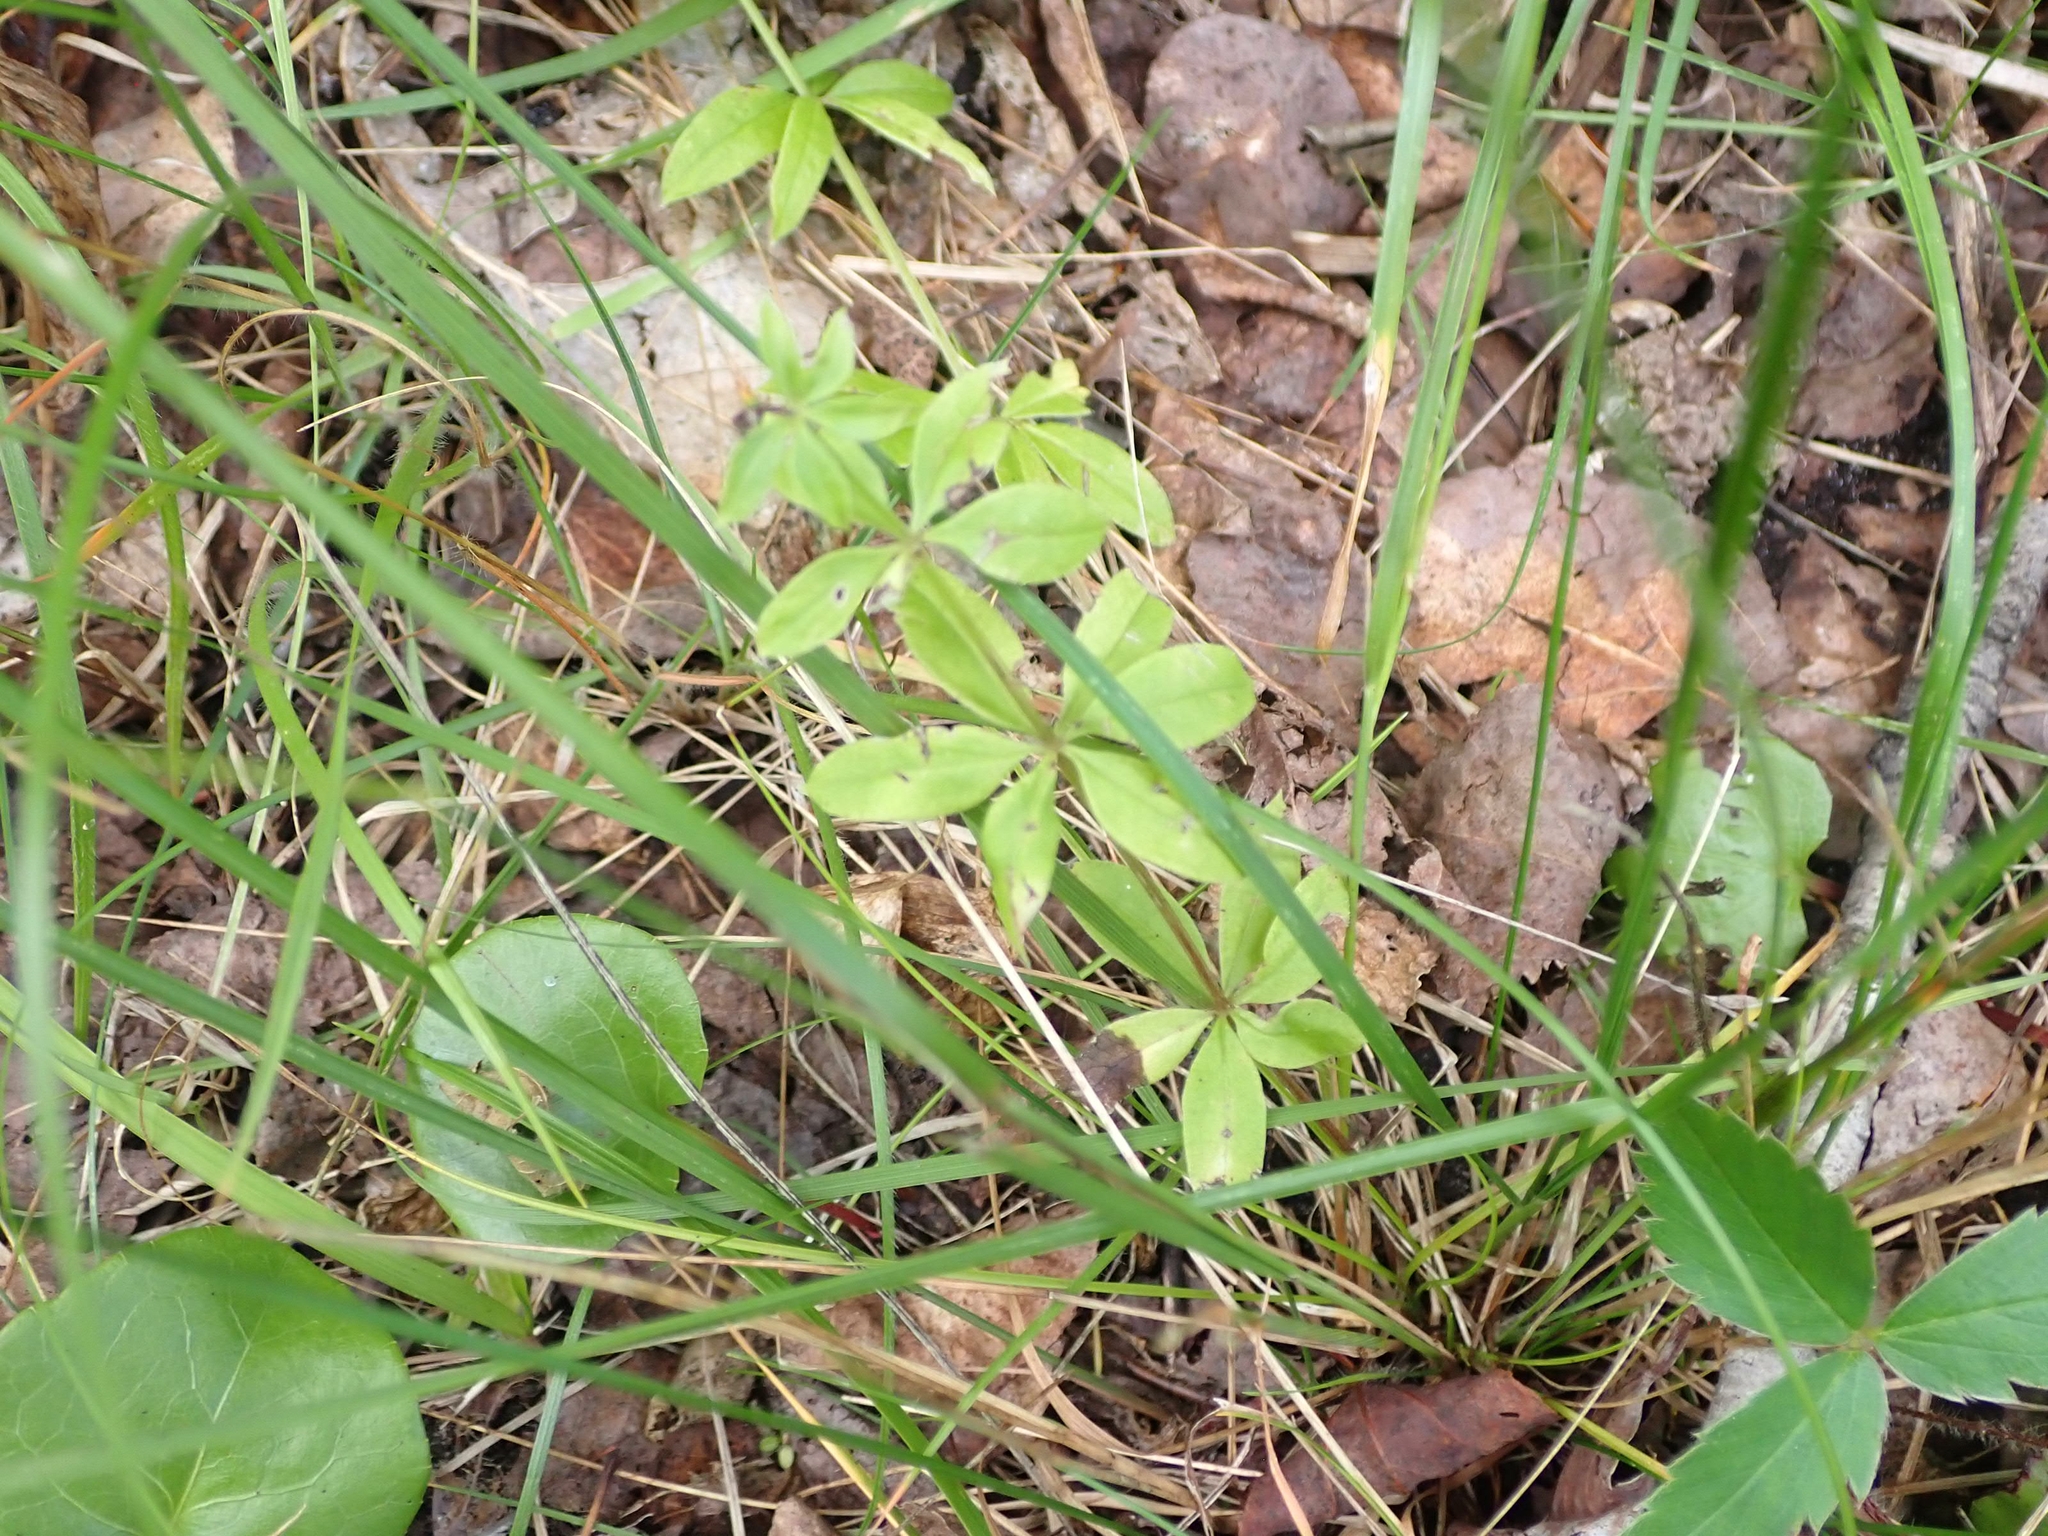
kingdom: Plantae
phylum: Tracheophyta
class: Magnoliopsida
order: Gentianales
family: Rubiaceae
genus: Galium
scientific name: Galium triflorum
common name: Fragrant bedstraw
